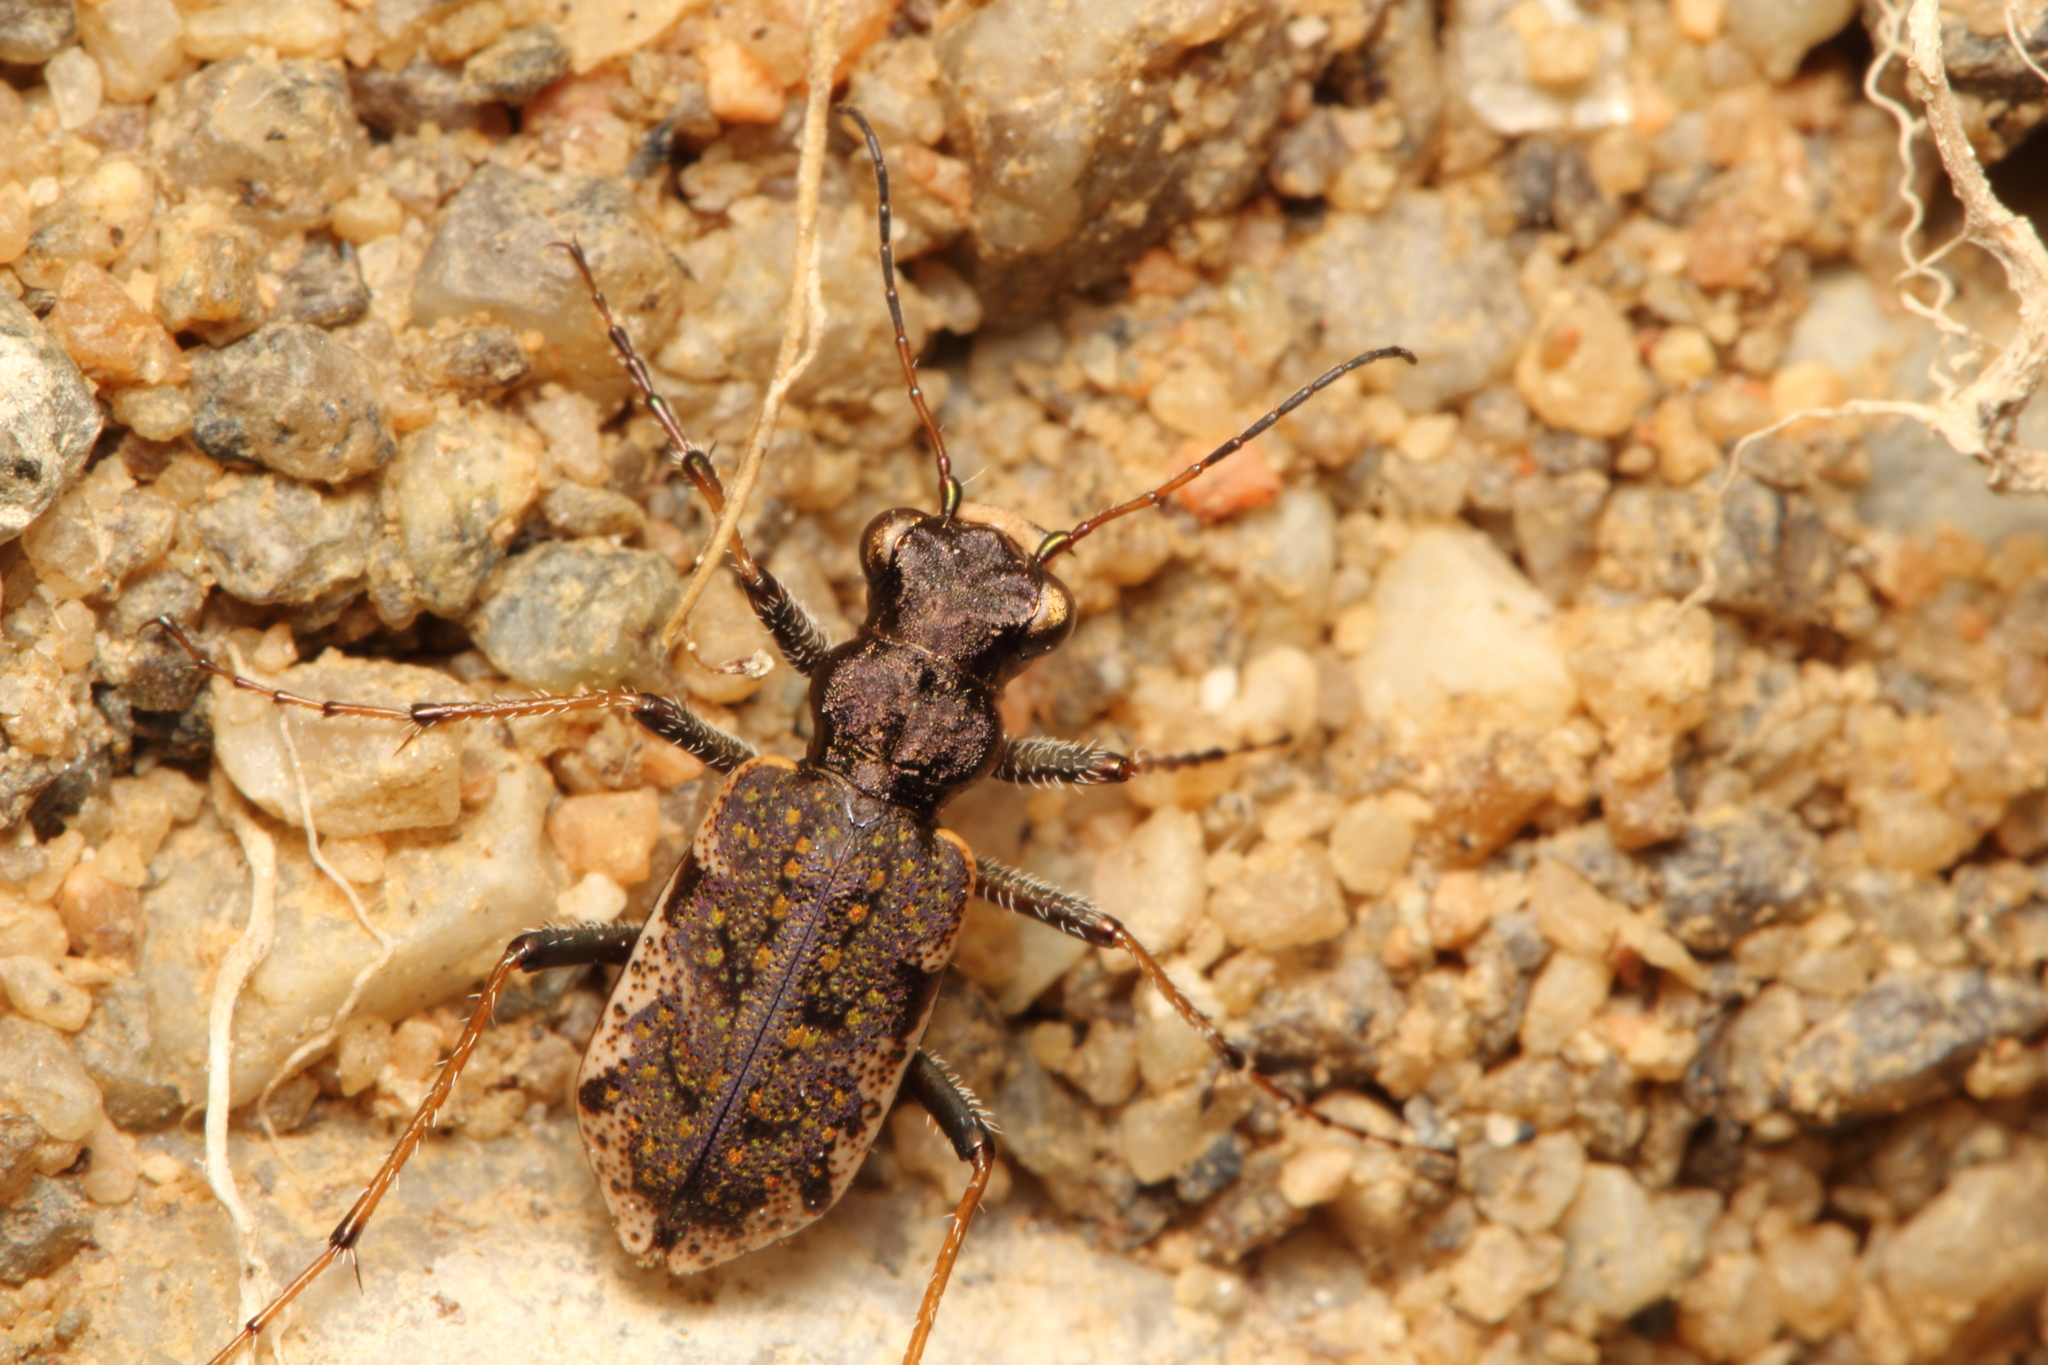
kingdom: Animalia
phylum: Arthropoda
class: Insecta
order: Coleoptera
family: Carabidae
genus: Neocicindela
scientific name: Neocicindela garnerae
